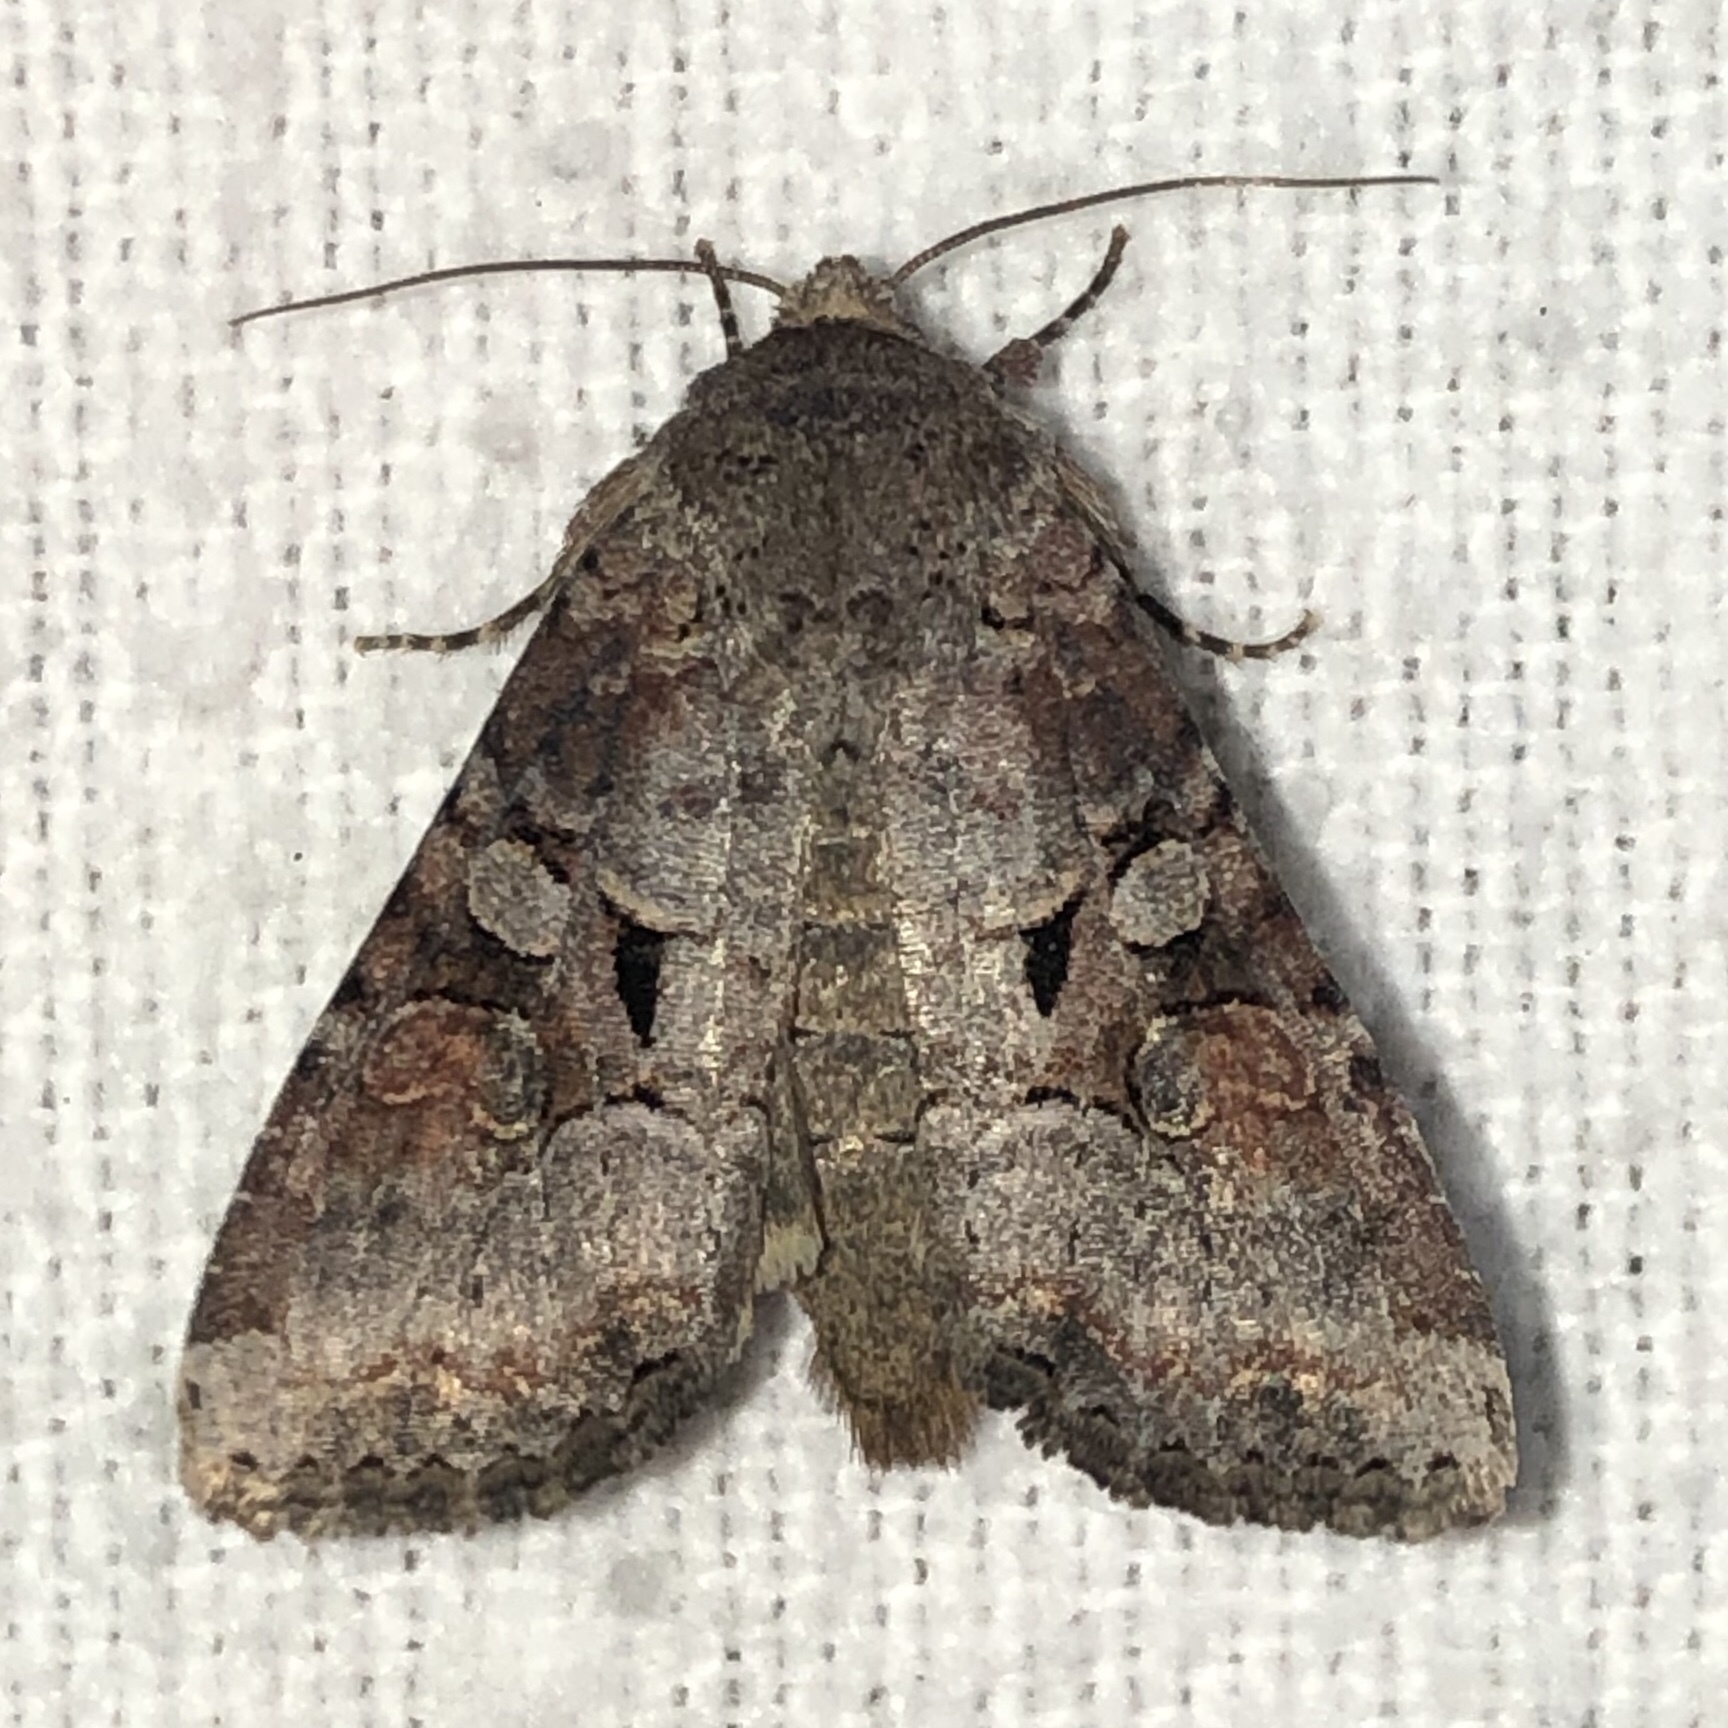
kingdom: Animalia
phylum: Arthropoda
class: Insecta
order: Lepidoptera
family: Noctuidae
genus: Trichordestra
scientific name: Trichordestra legitima
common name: Striped garden caterpillar
